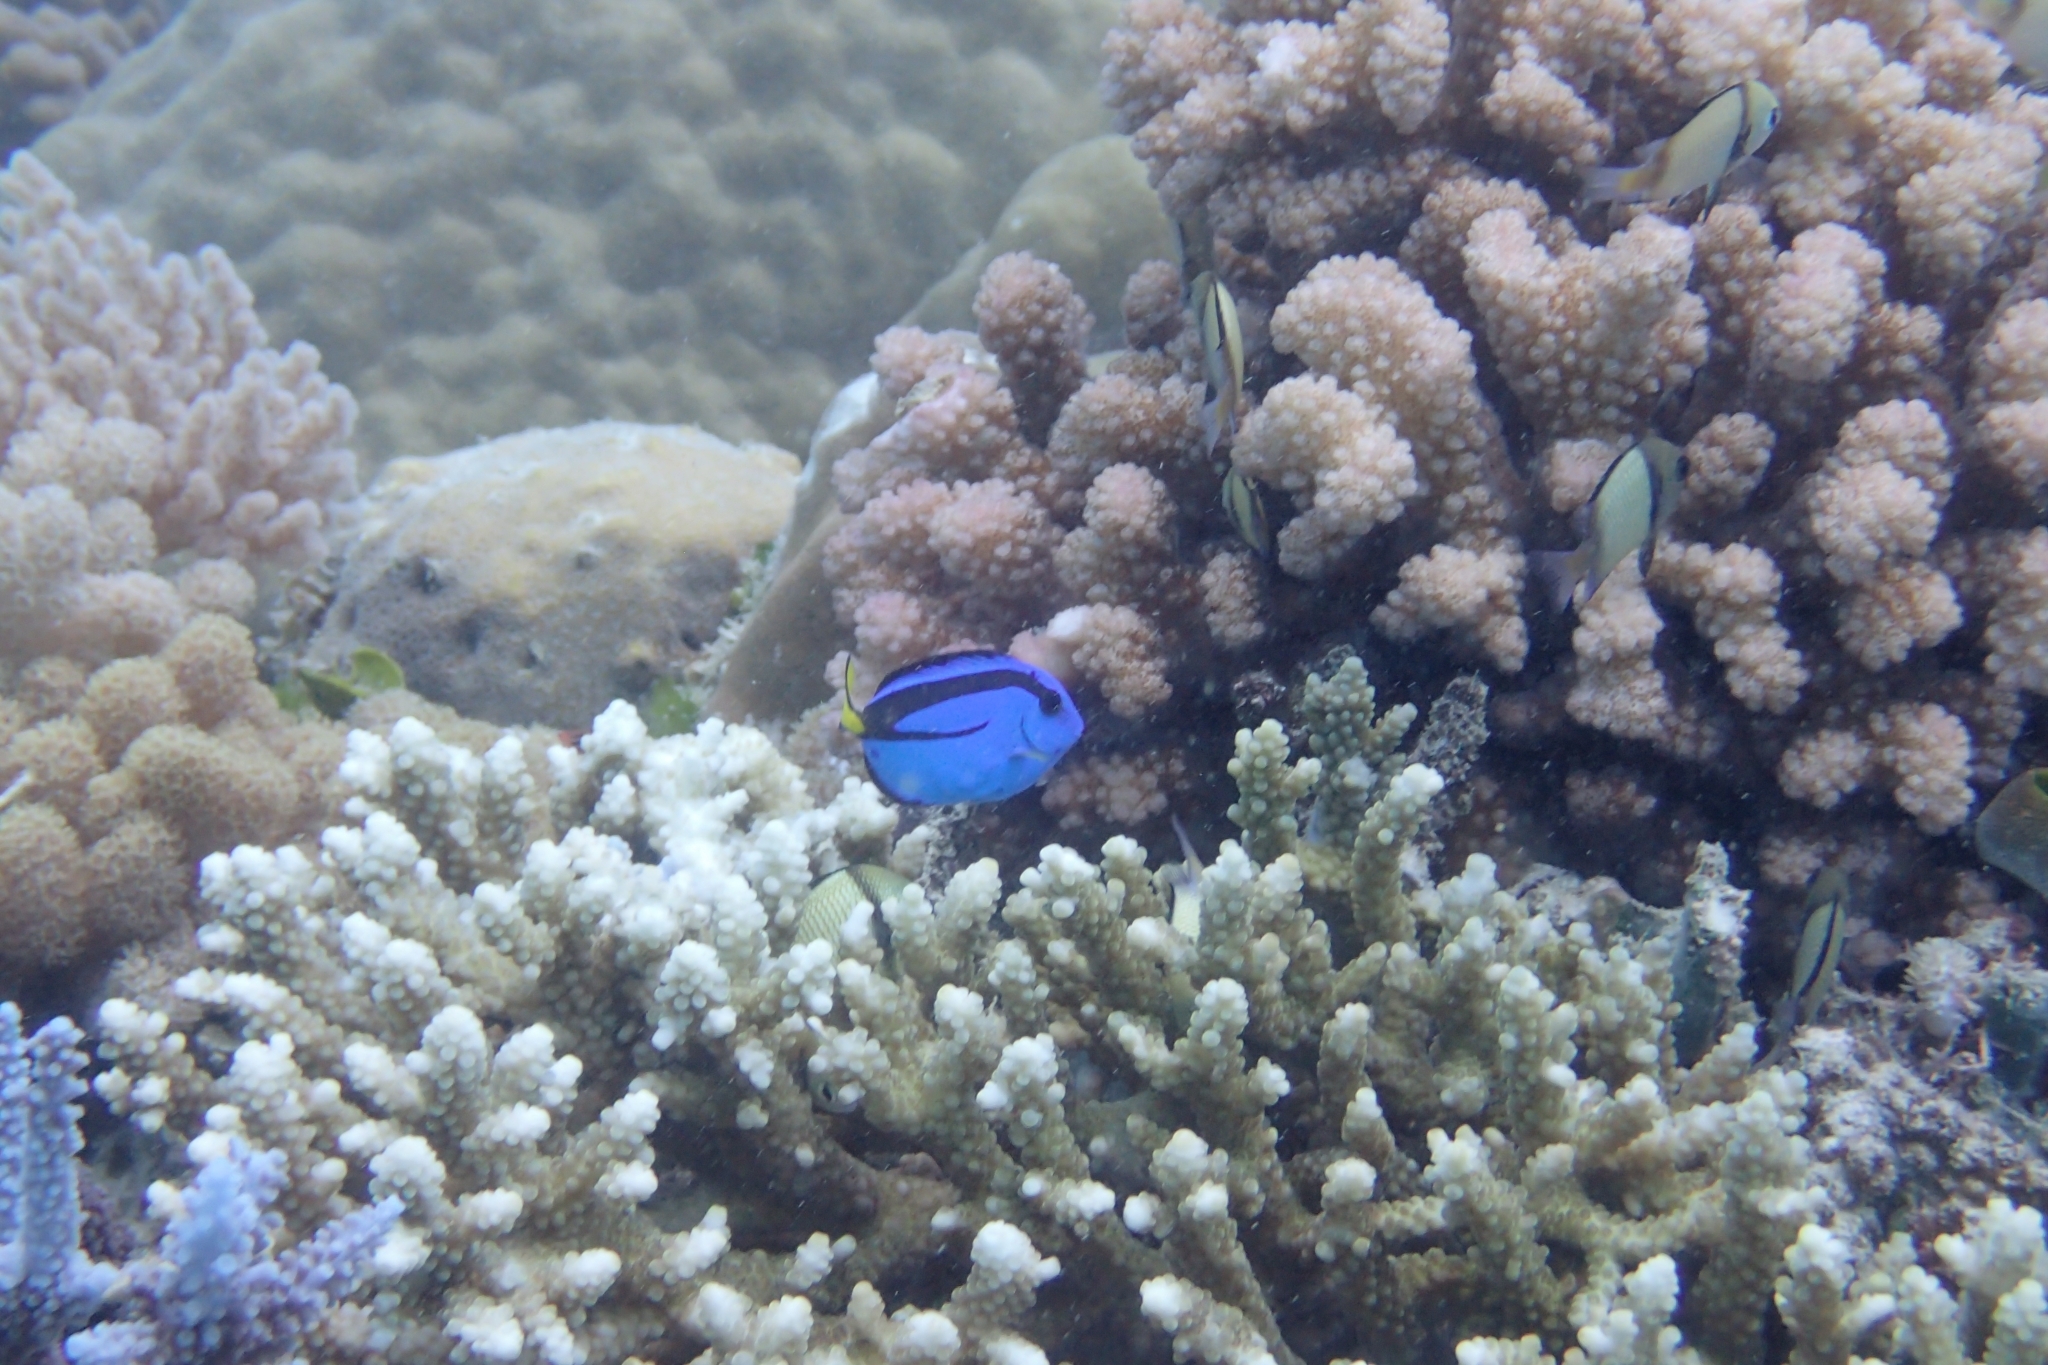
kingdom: Animalia
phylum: Chordata
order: Perciformes
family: Acanthuridae
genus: Paracanthurus
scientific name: Paracanthurus hepatus
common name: Palette surgeonfish
